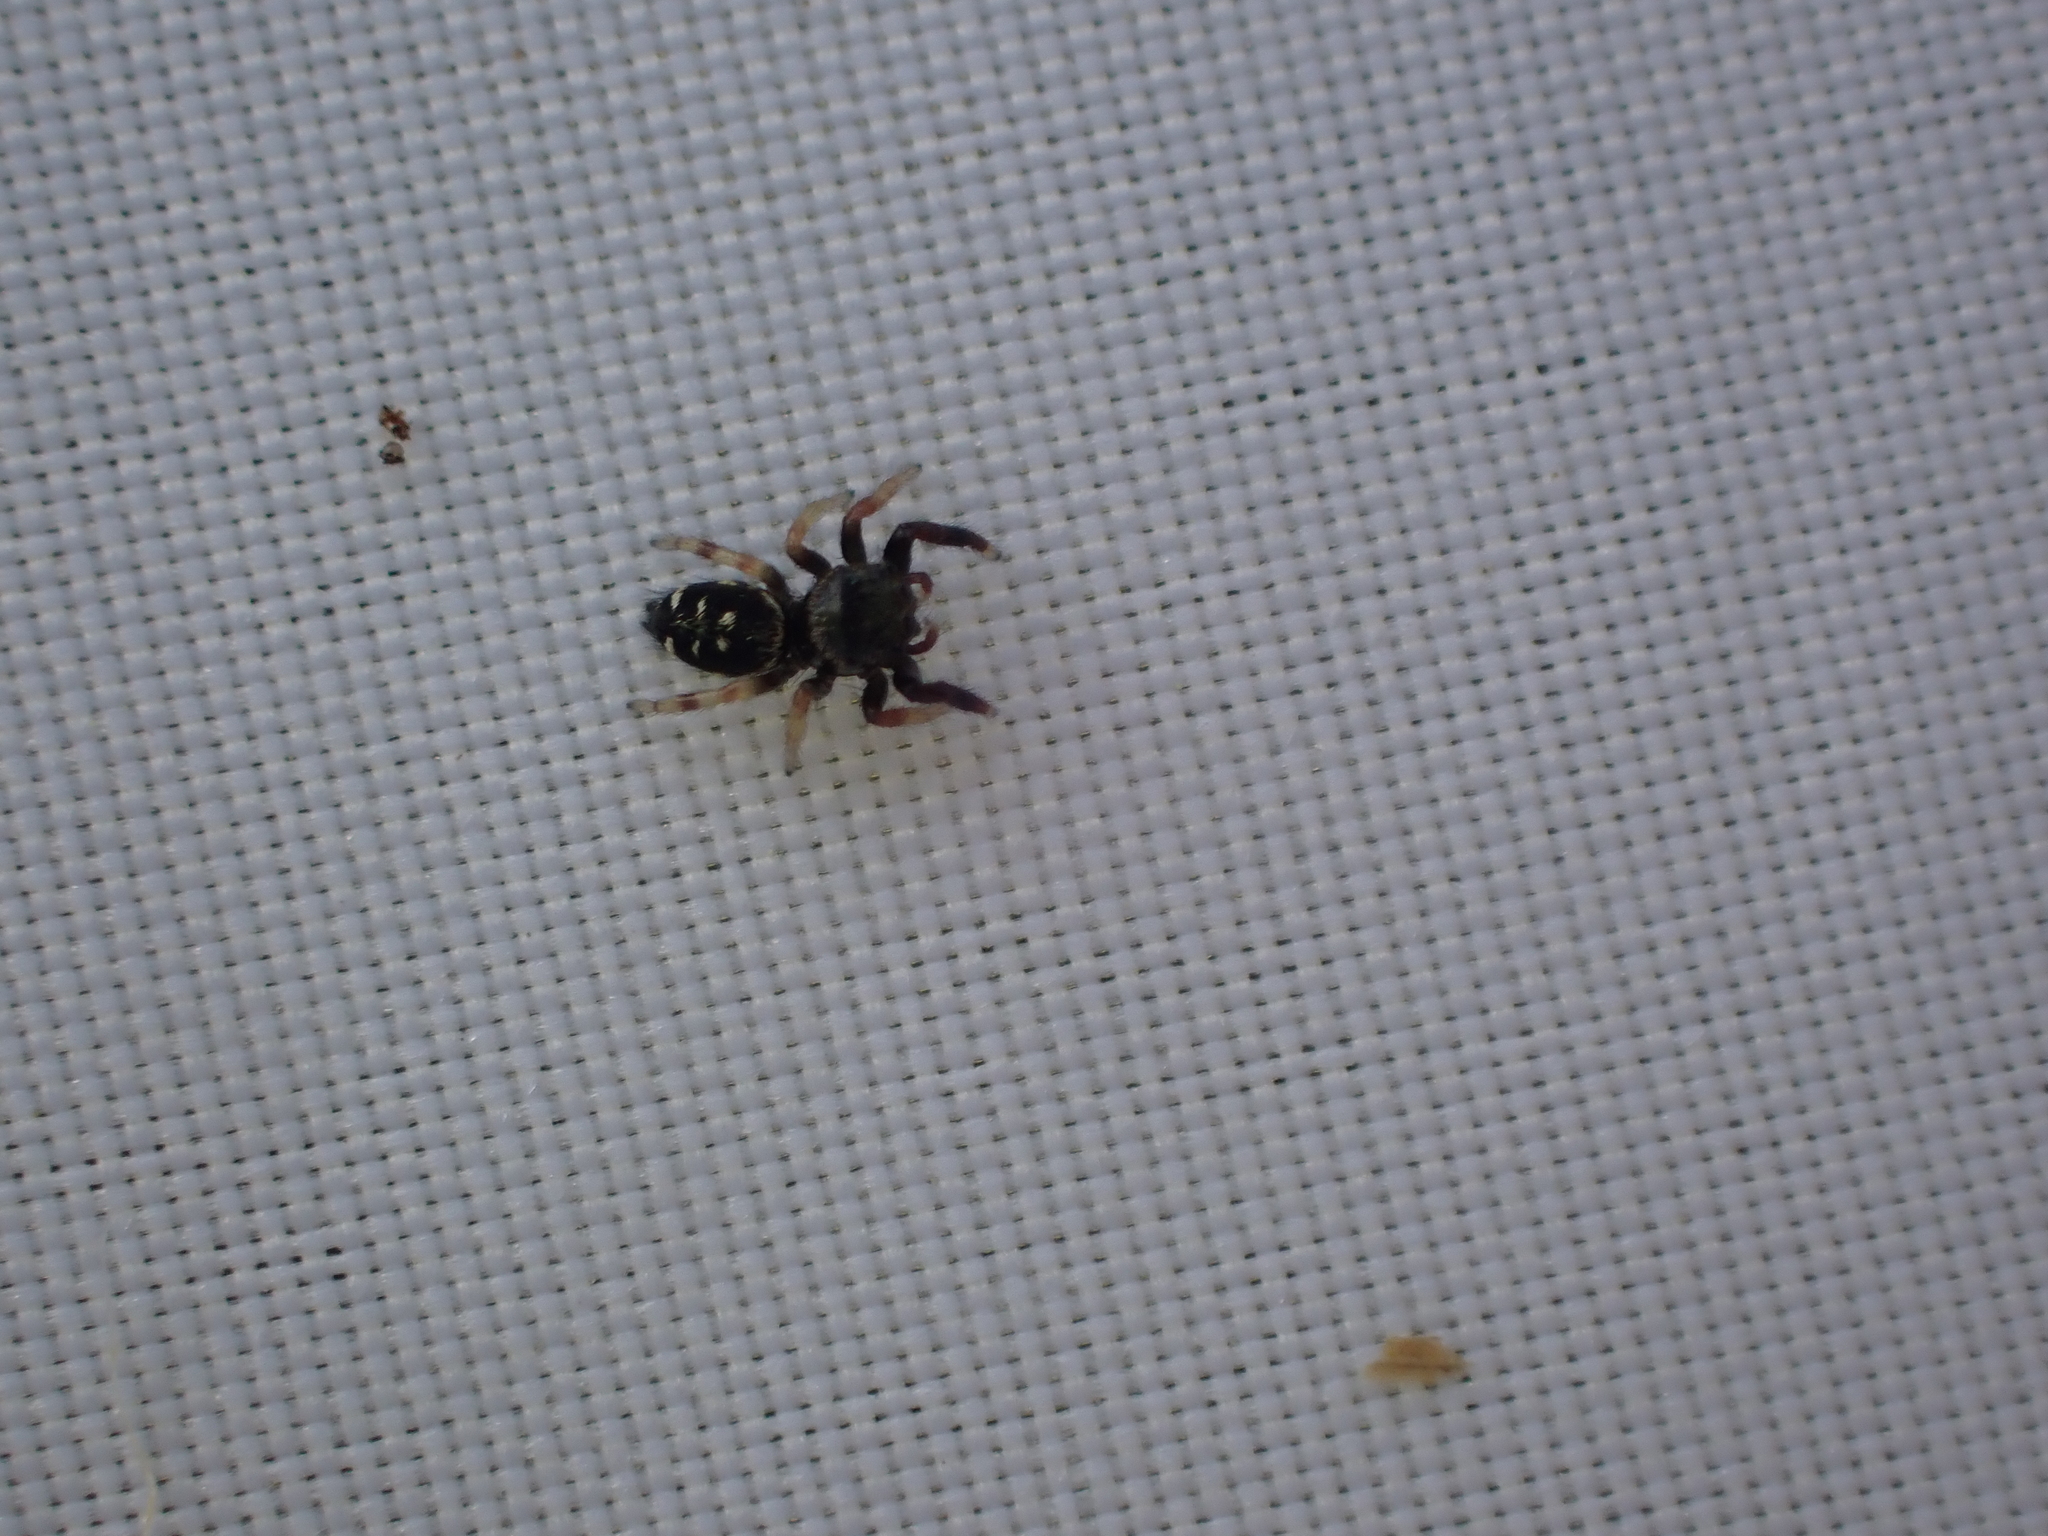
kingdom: Animalia
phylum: Arthropoda
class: Arachnida
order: Araneae
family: Salticidae
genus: Paraphidippus
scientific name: Paraphidippus aurantius
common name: Jumping spiders
